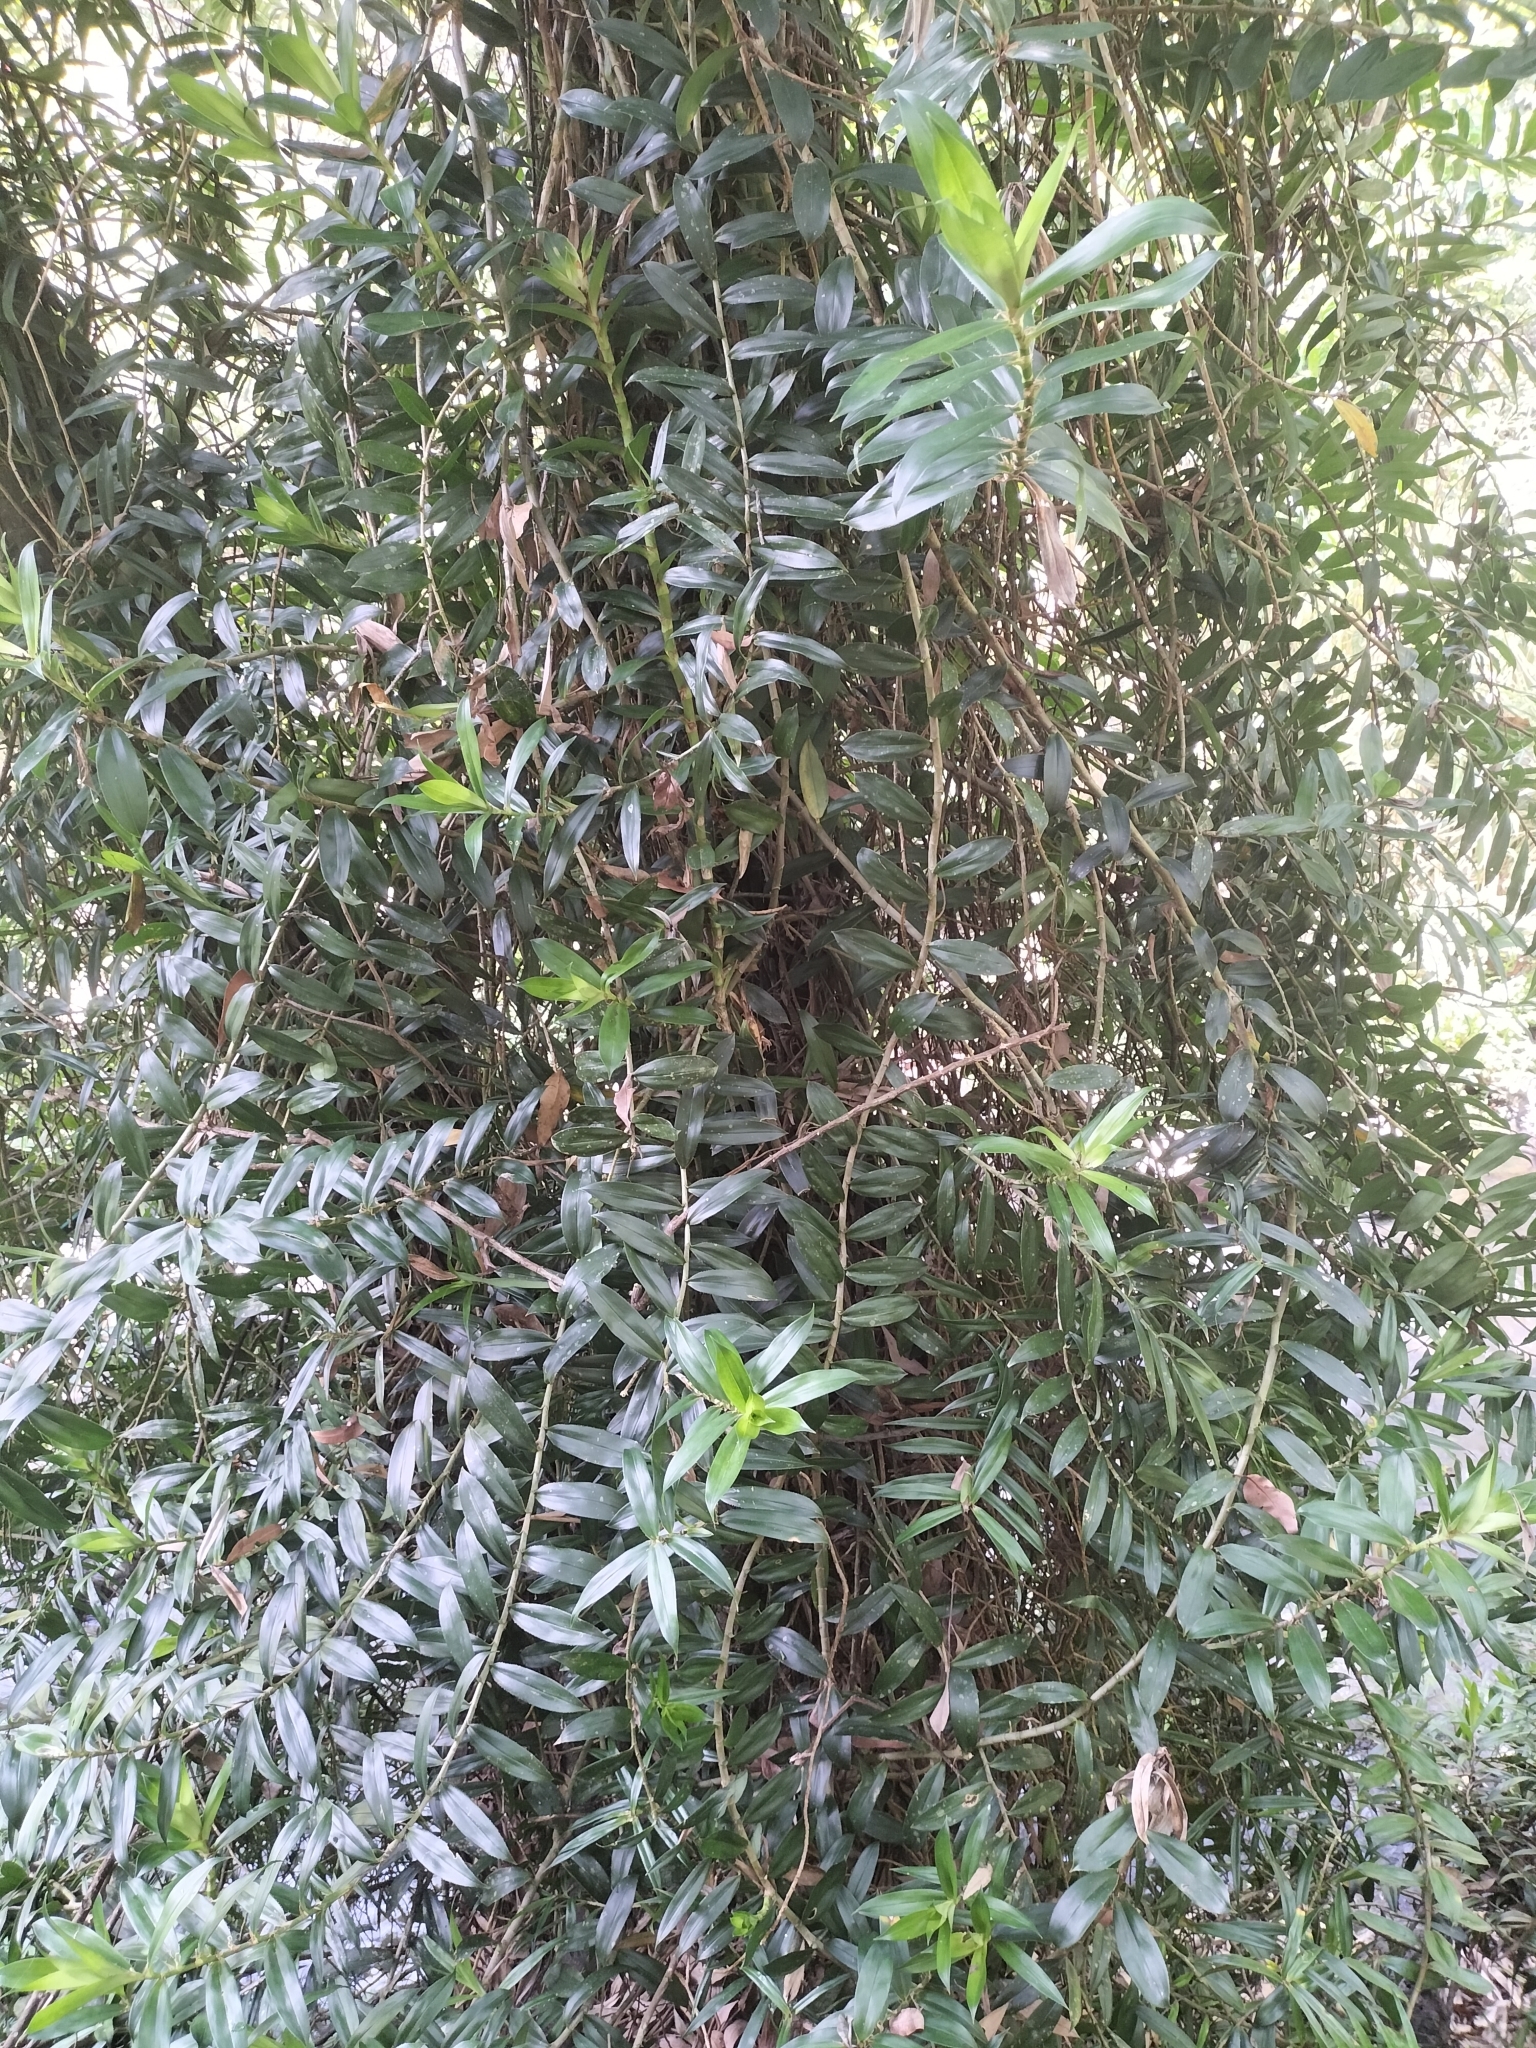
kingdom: Plantae
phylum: Tracheophyta
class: Liliopsida
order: Pandanales
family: Pandanaceae
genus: Freycinetia
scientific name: Freycinetia scandens
